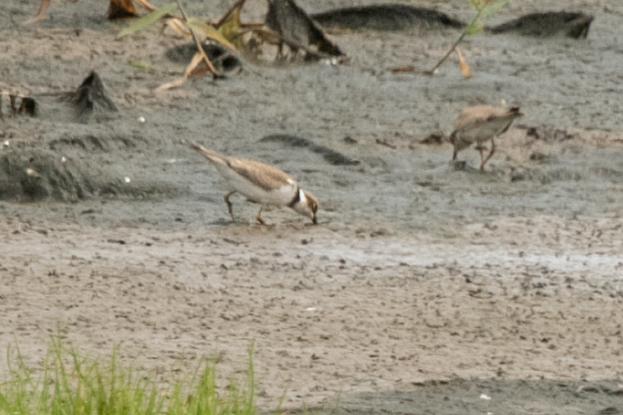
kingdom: Animalia
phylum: Chordata
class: Aves
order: Charadriiformes
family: Charadriidae
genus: Charadrius
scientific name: Charadrius dubius
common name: Little ringed plover
